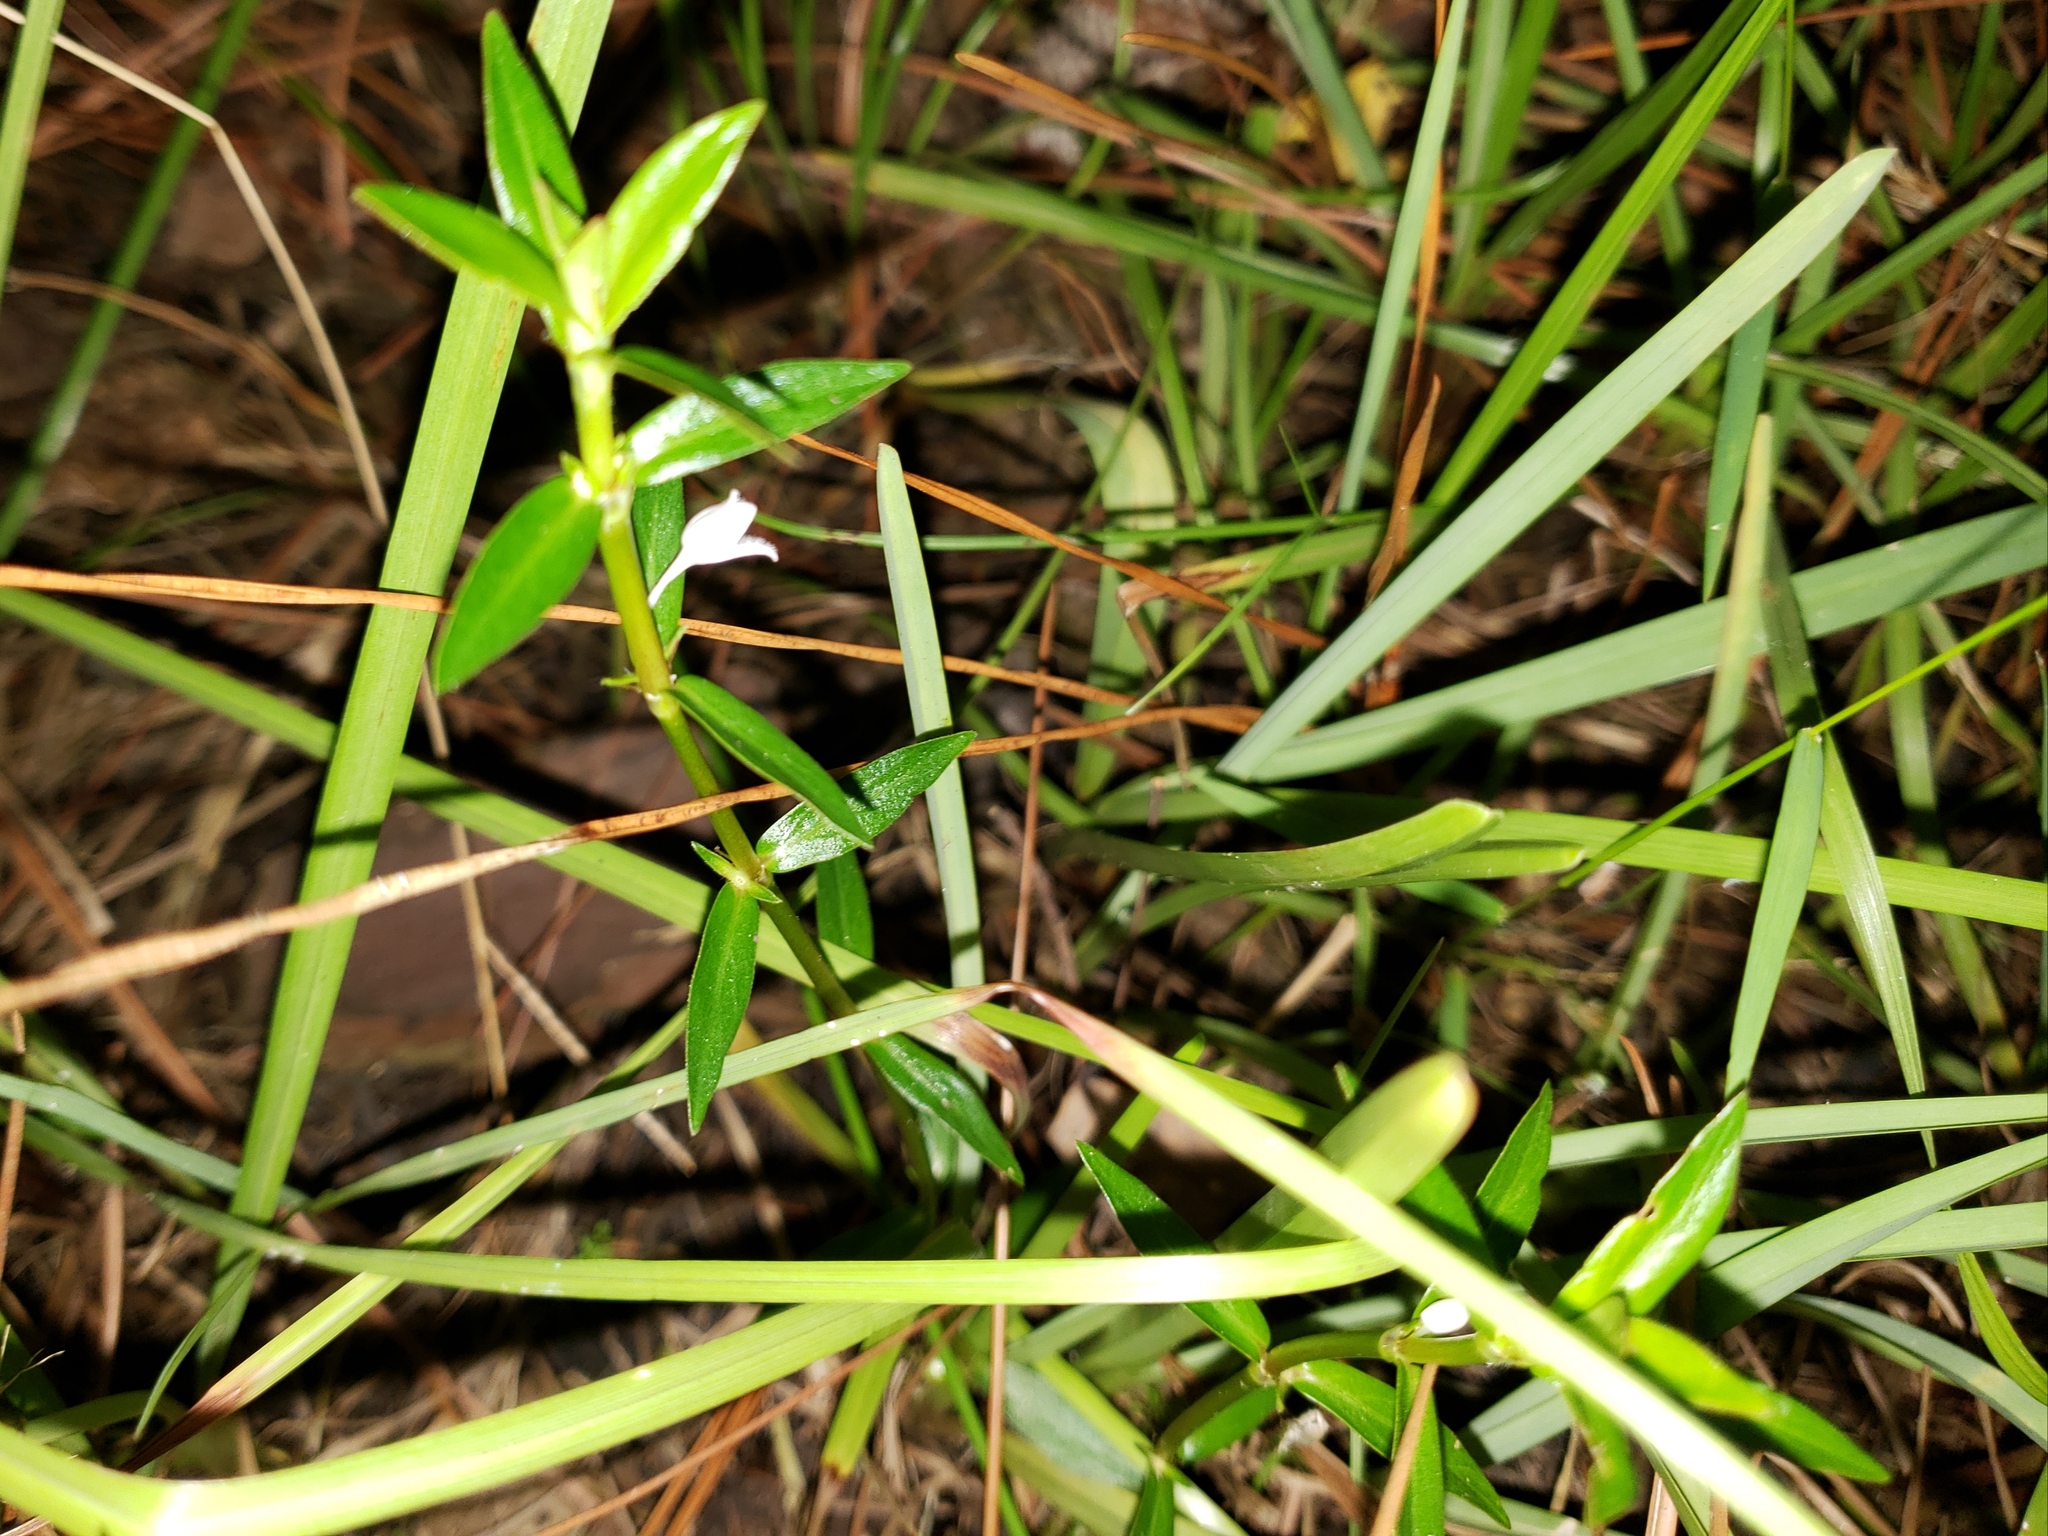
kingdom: Plantae
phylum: Tracheophyta
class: Magnoliopsida
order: Gentianales
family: Rubiaceae
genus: Diodia
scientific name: Diodia virginiana
